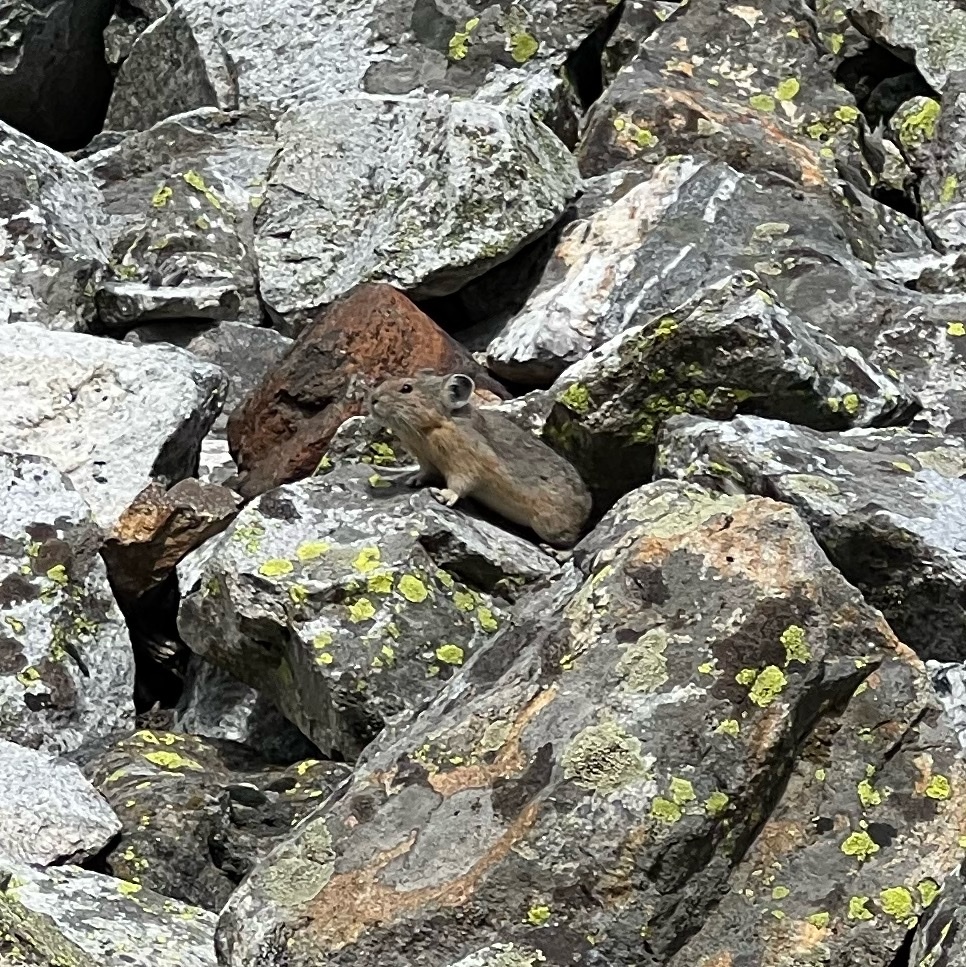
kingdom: Animalia
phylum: Chordata
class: Mammalia
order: Lagomorpha
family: Ochotonidae
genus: Ochotona
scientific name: Ochotona princeps
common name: American pika
